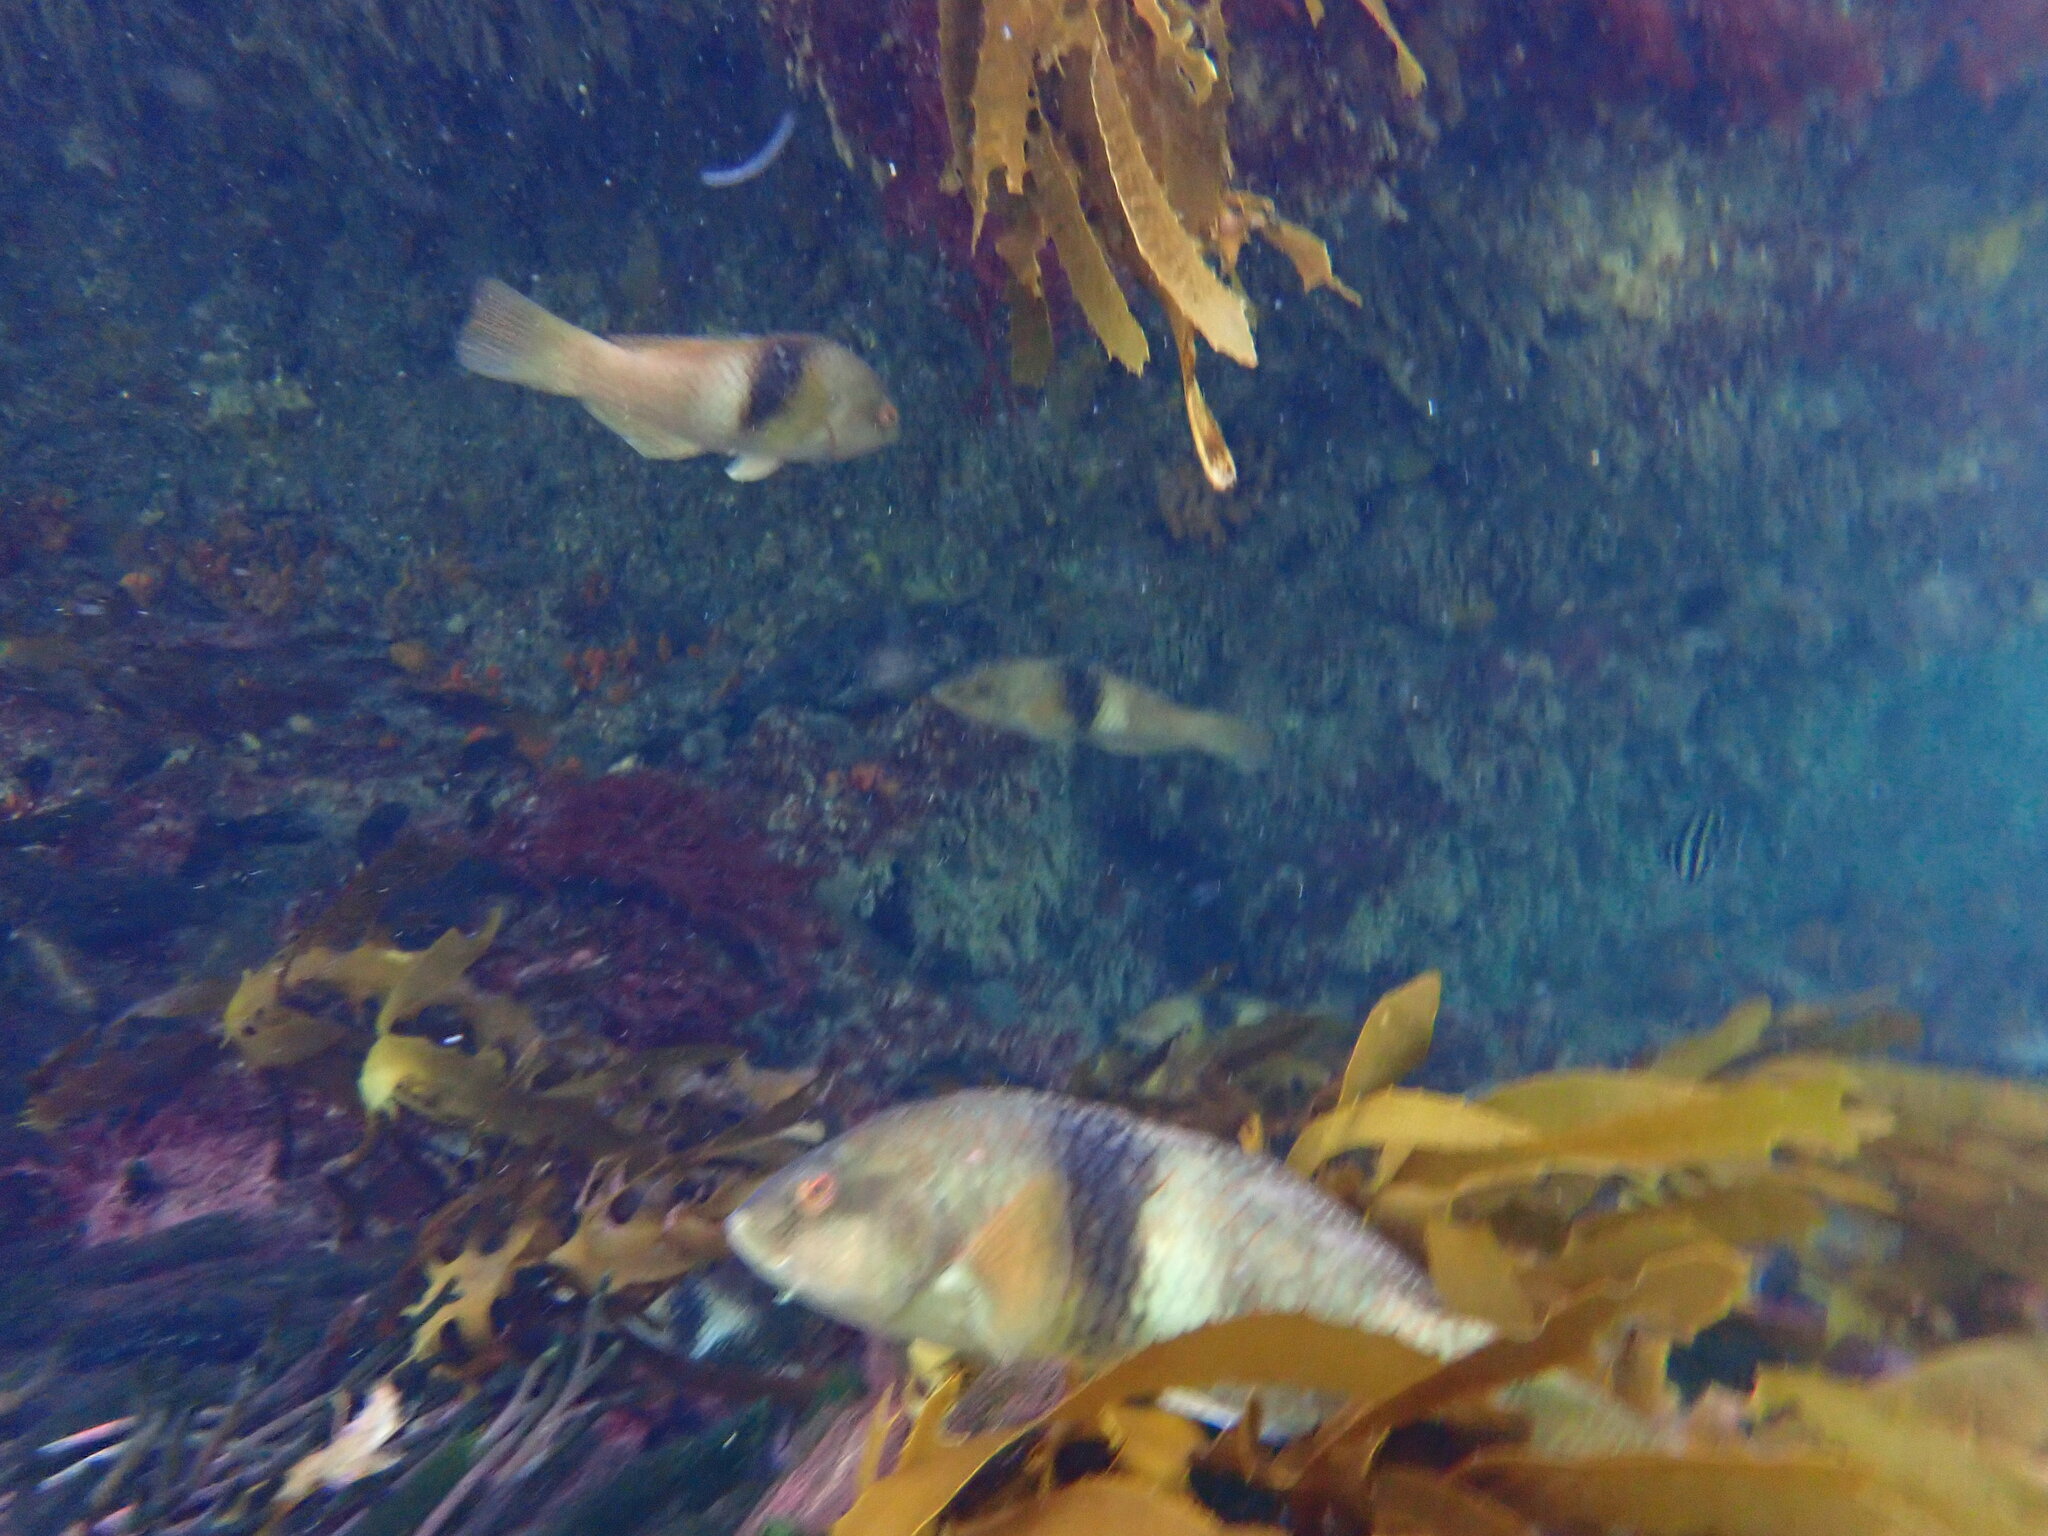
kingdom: Animalia
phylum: Chordata
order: Perciformes
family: Labridae
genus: Notolabrus
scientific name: Notolabrus tetricus
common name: Blue-throated parrotfish
